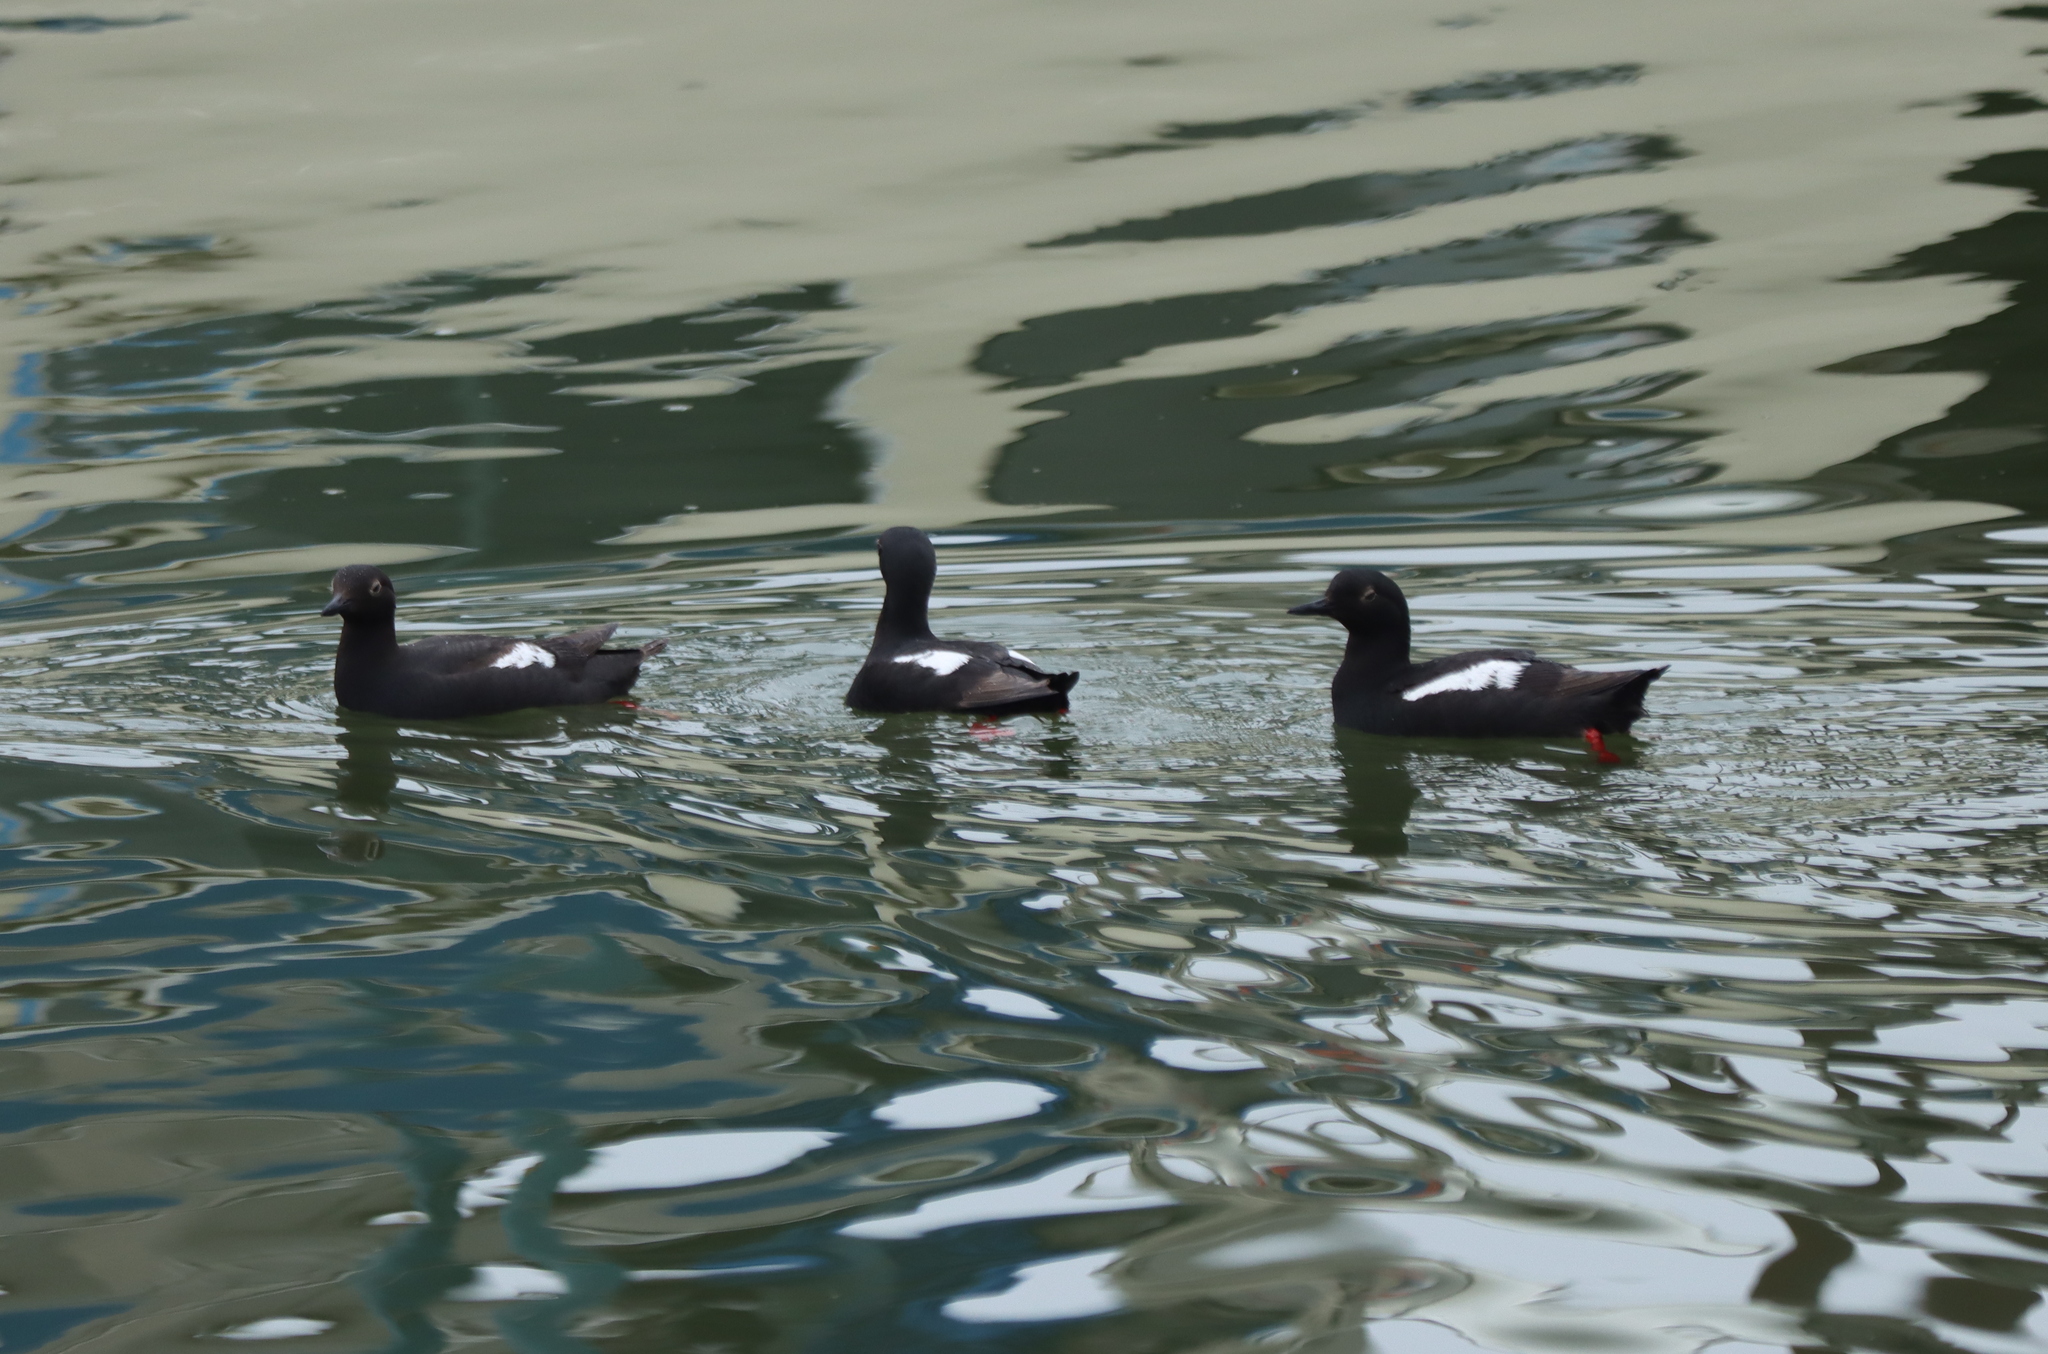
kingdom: Animalia
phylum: Chordata
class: Aves
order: Charadriiformes
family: Alcidae
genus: Cepphus
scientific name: Cepphus columba
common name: Pigeon guillemot
